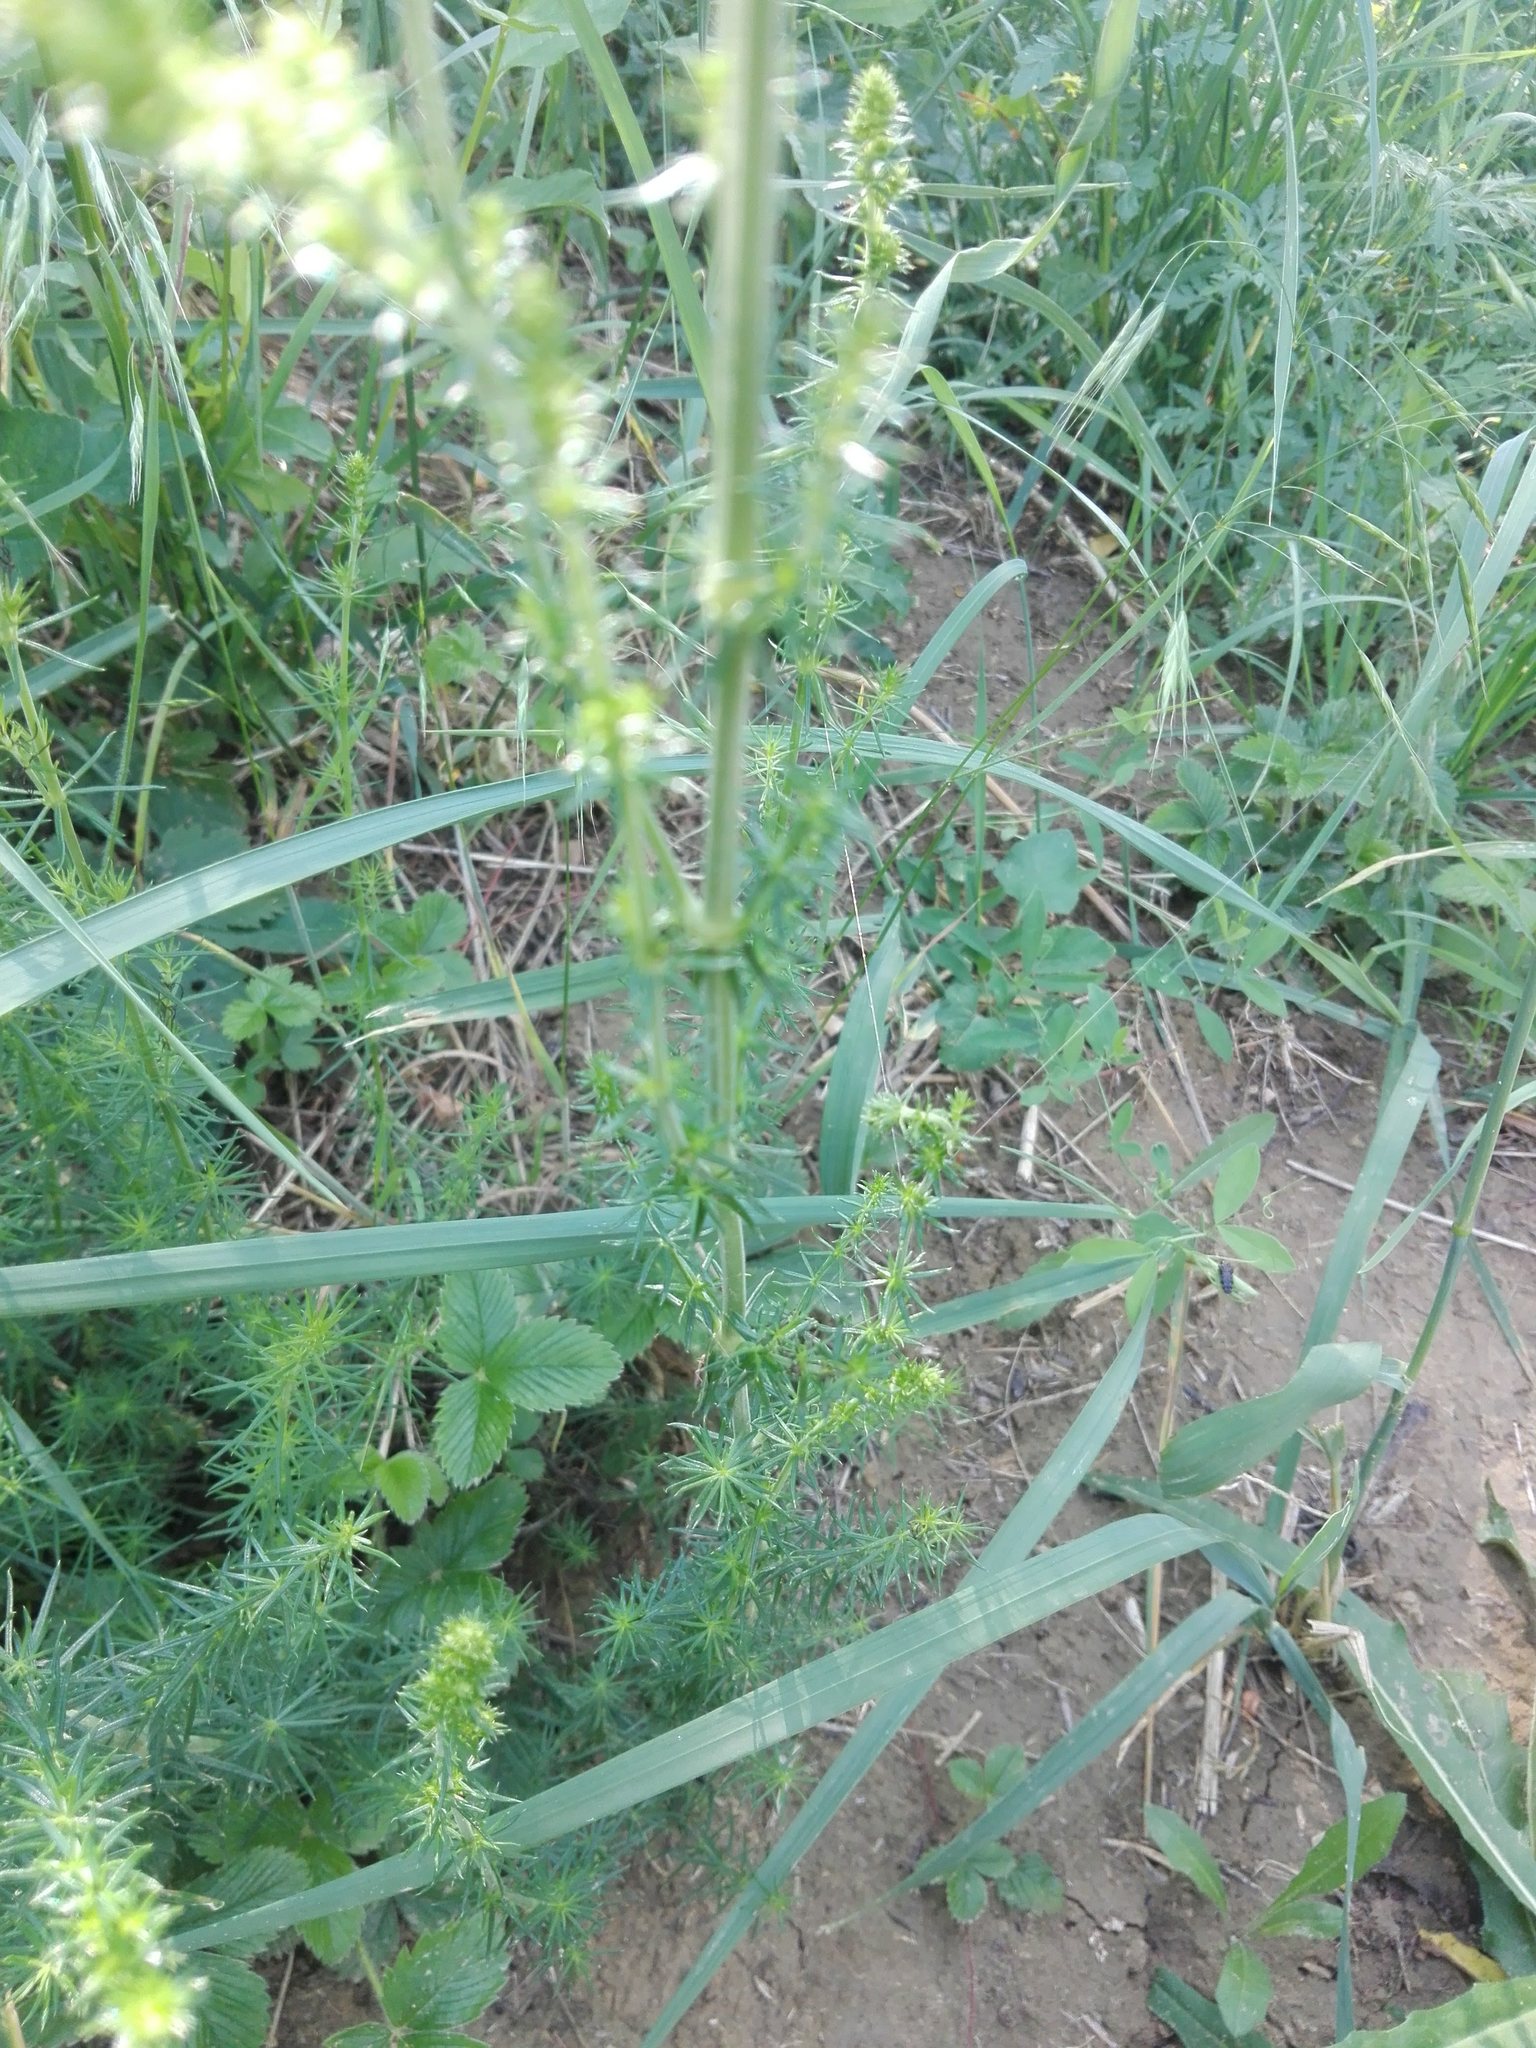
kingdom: Plantae
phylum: Tracheophyta
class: Magnoliopsida
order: Gentianales
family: Rubiaceae
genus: Galium
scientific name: Galium verum
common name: Lady's bedstraw
